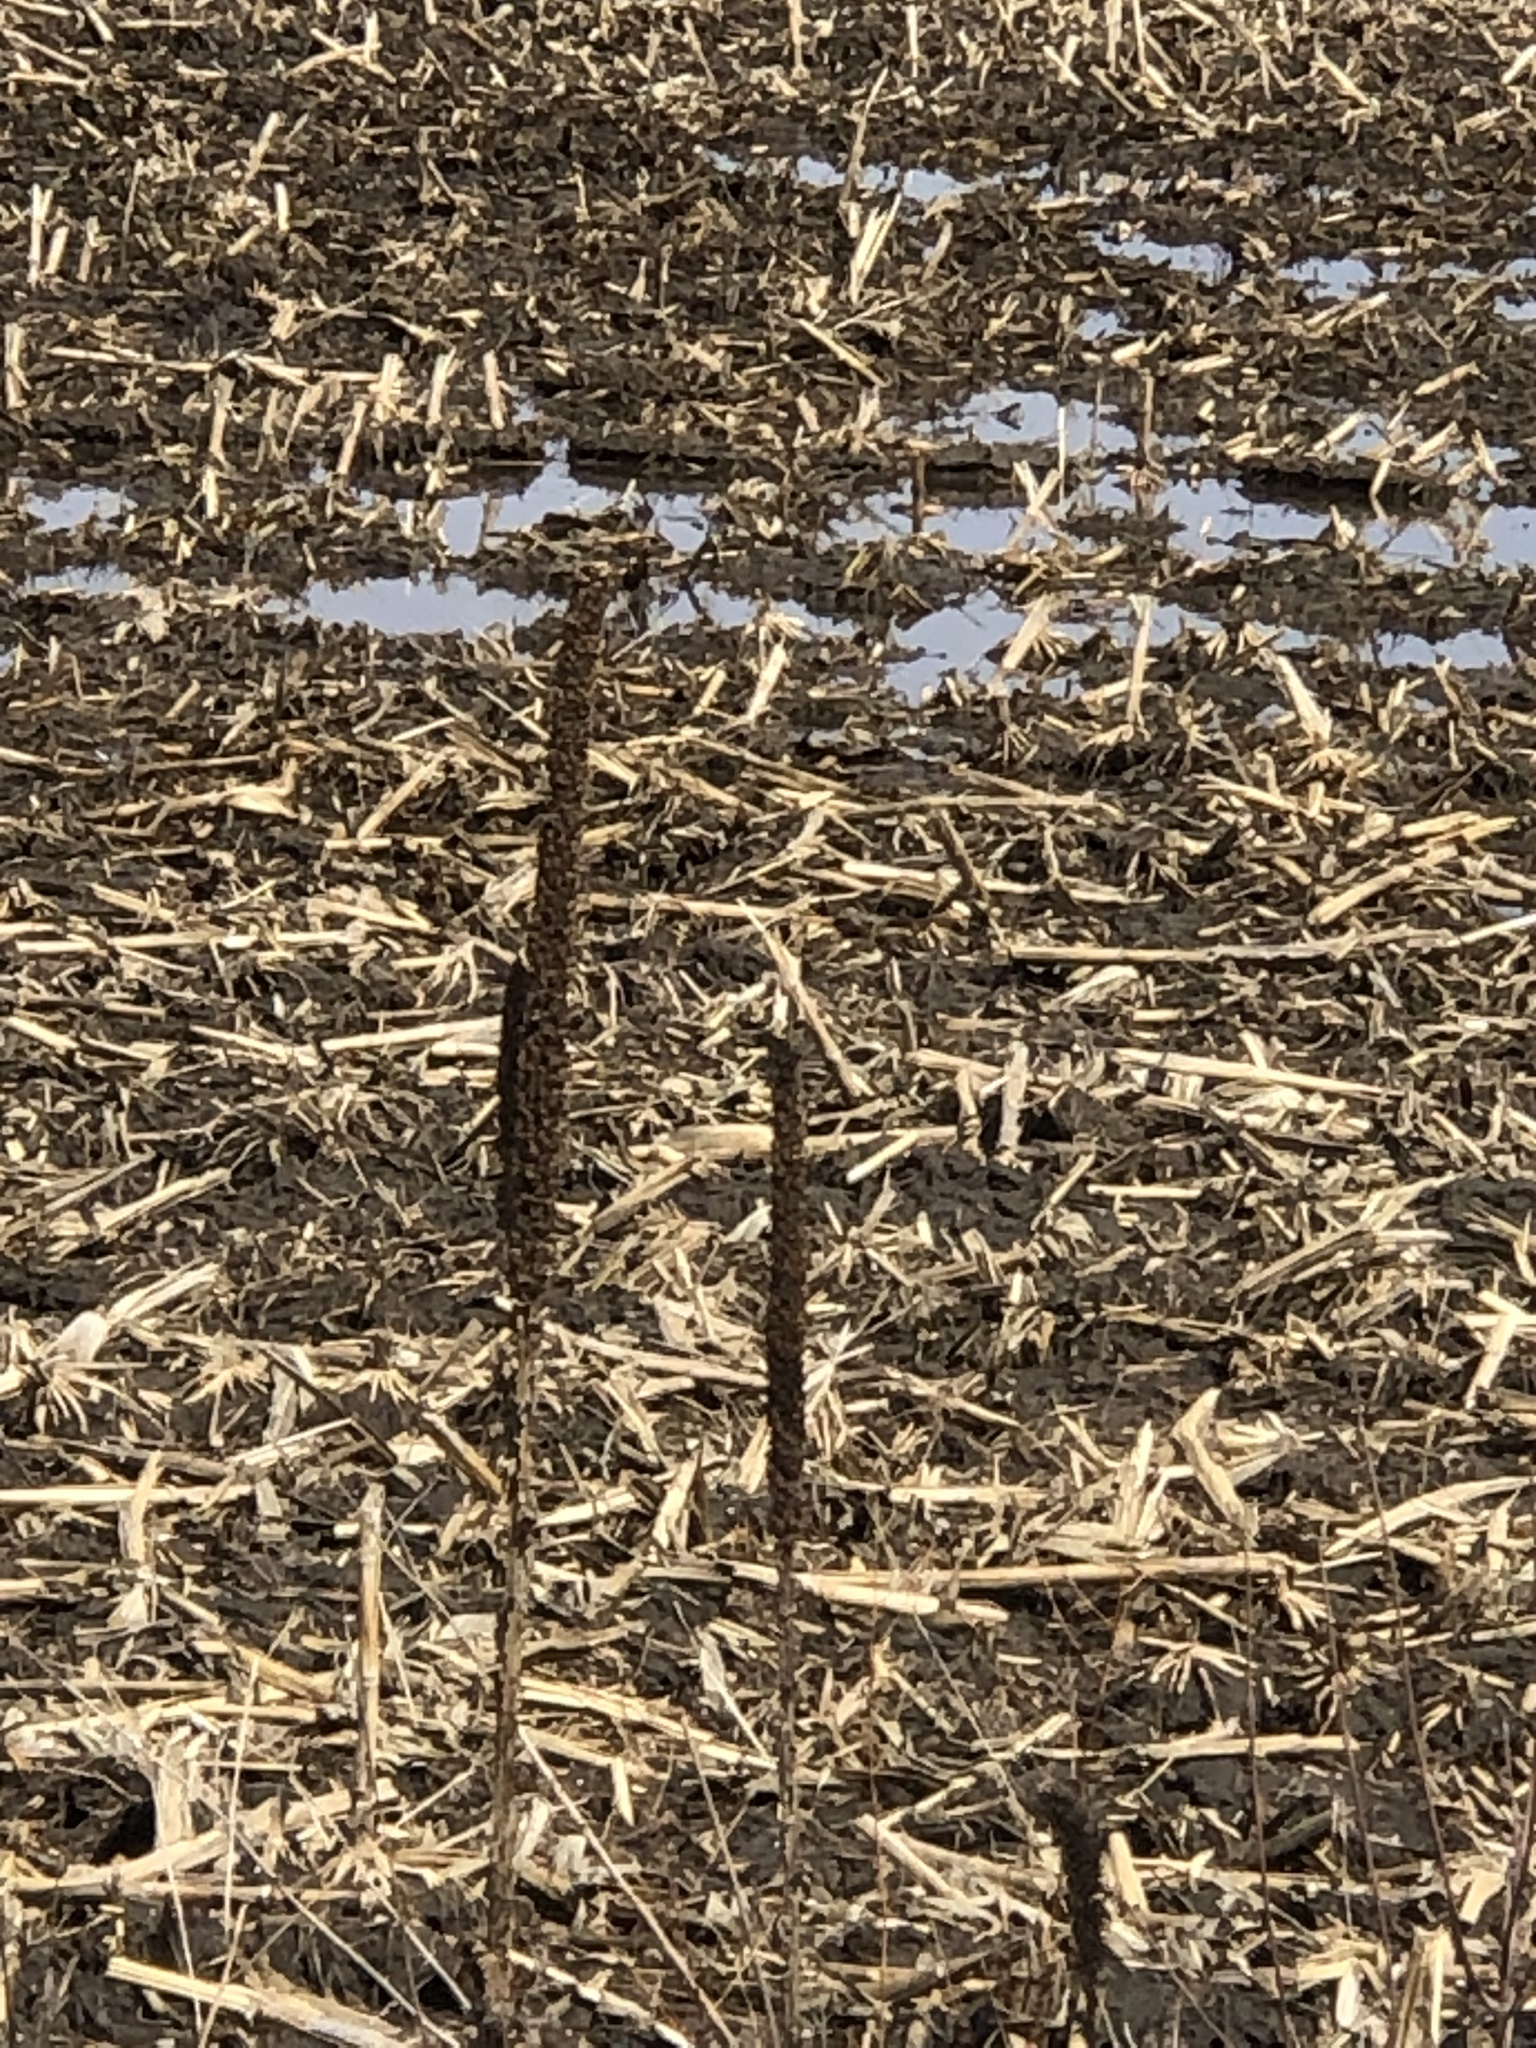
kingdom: Plantae
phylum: Tracheophyta
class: Magnoliopsida
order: Lamiales
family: Scrophulariaceae
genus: Verbascum
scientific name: Verbascum thapsus
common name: Common mullein
